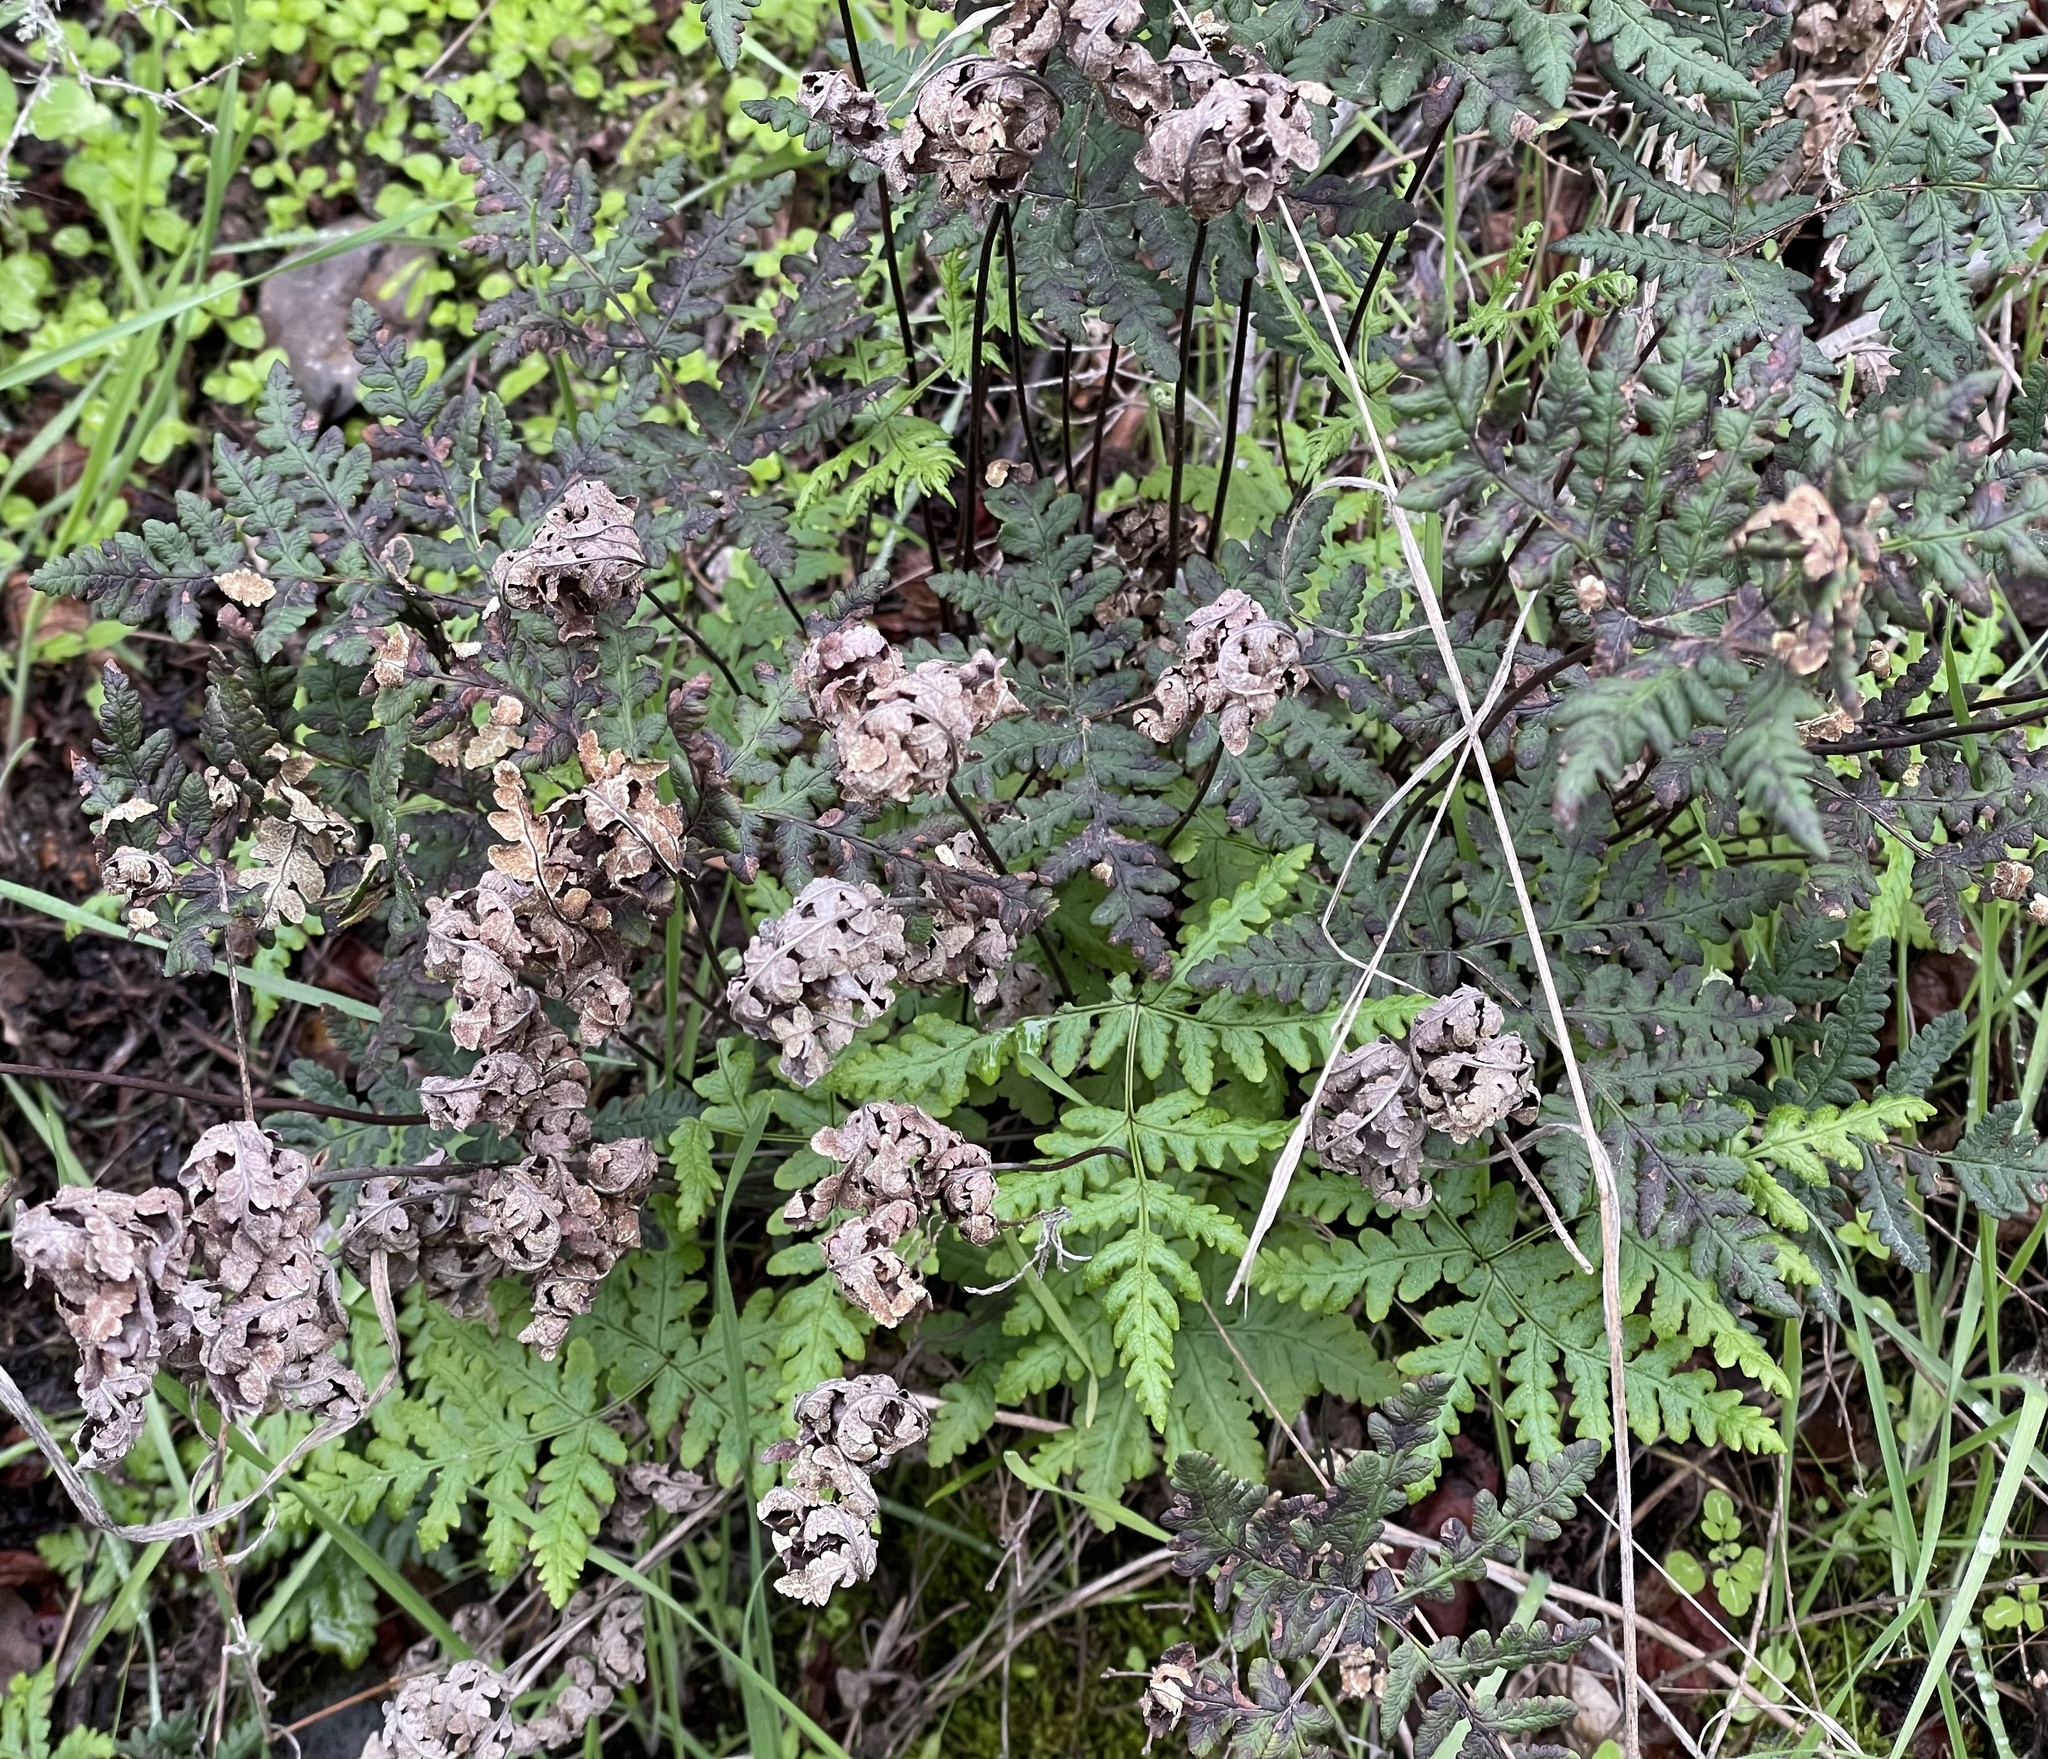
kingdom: Plantae
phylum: Tracheophyta
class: Polypodiopsida
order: Polypodiales
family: Pteridaceae
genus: Pentagramma
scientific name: Pentagramma triangularis
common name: Gold fern
